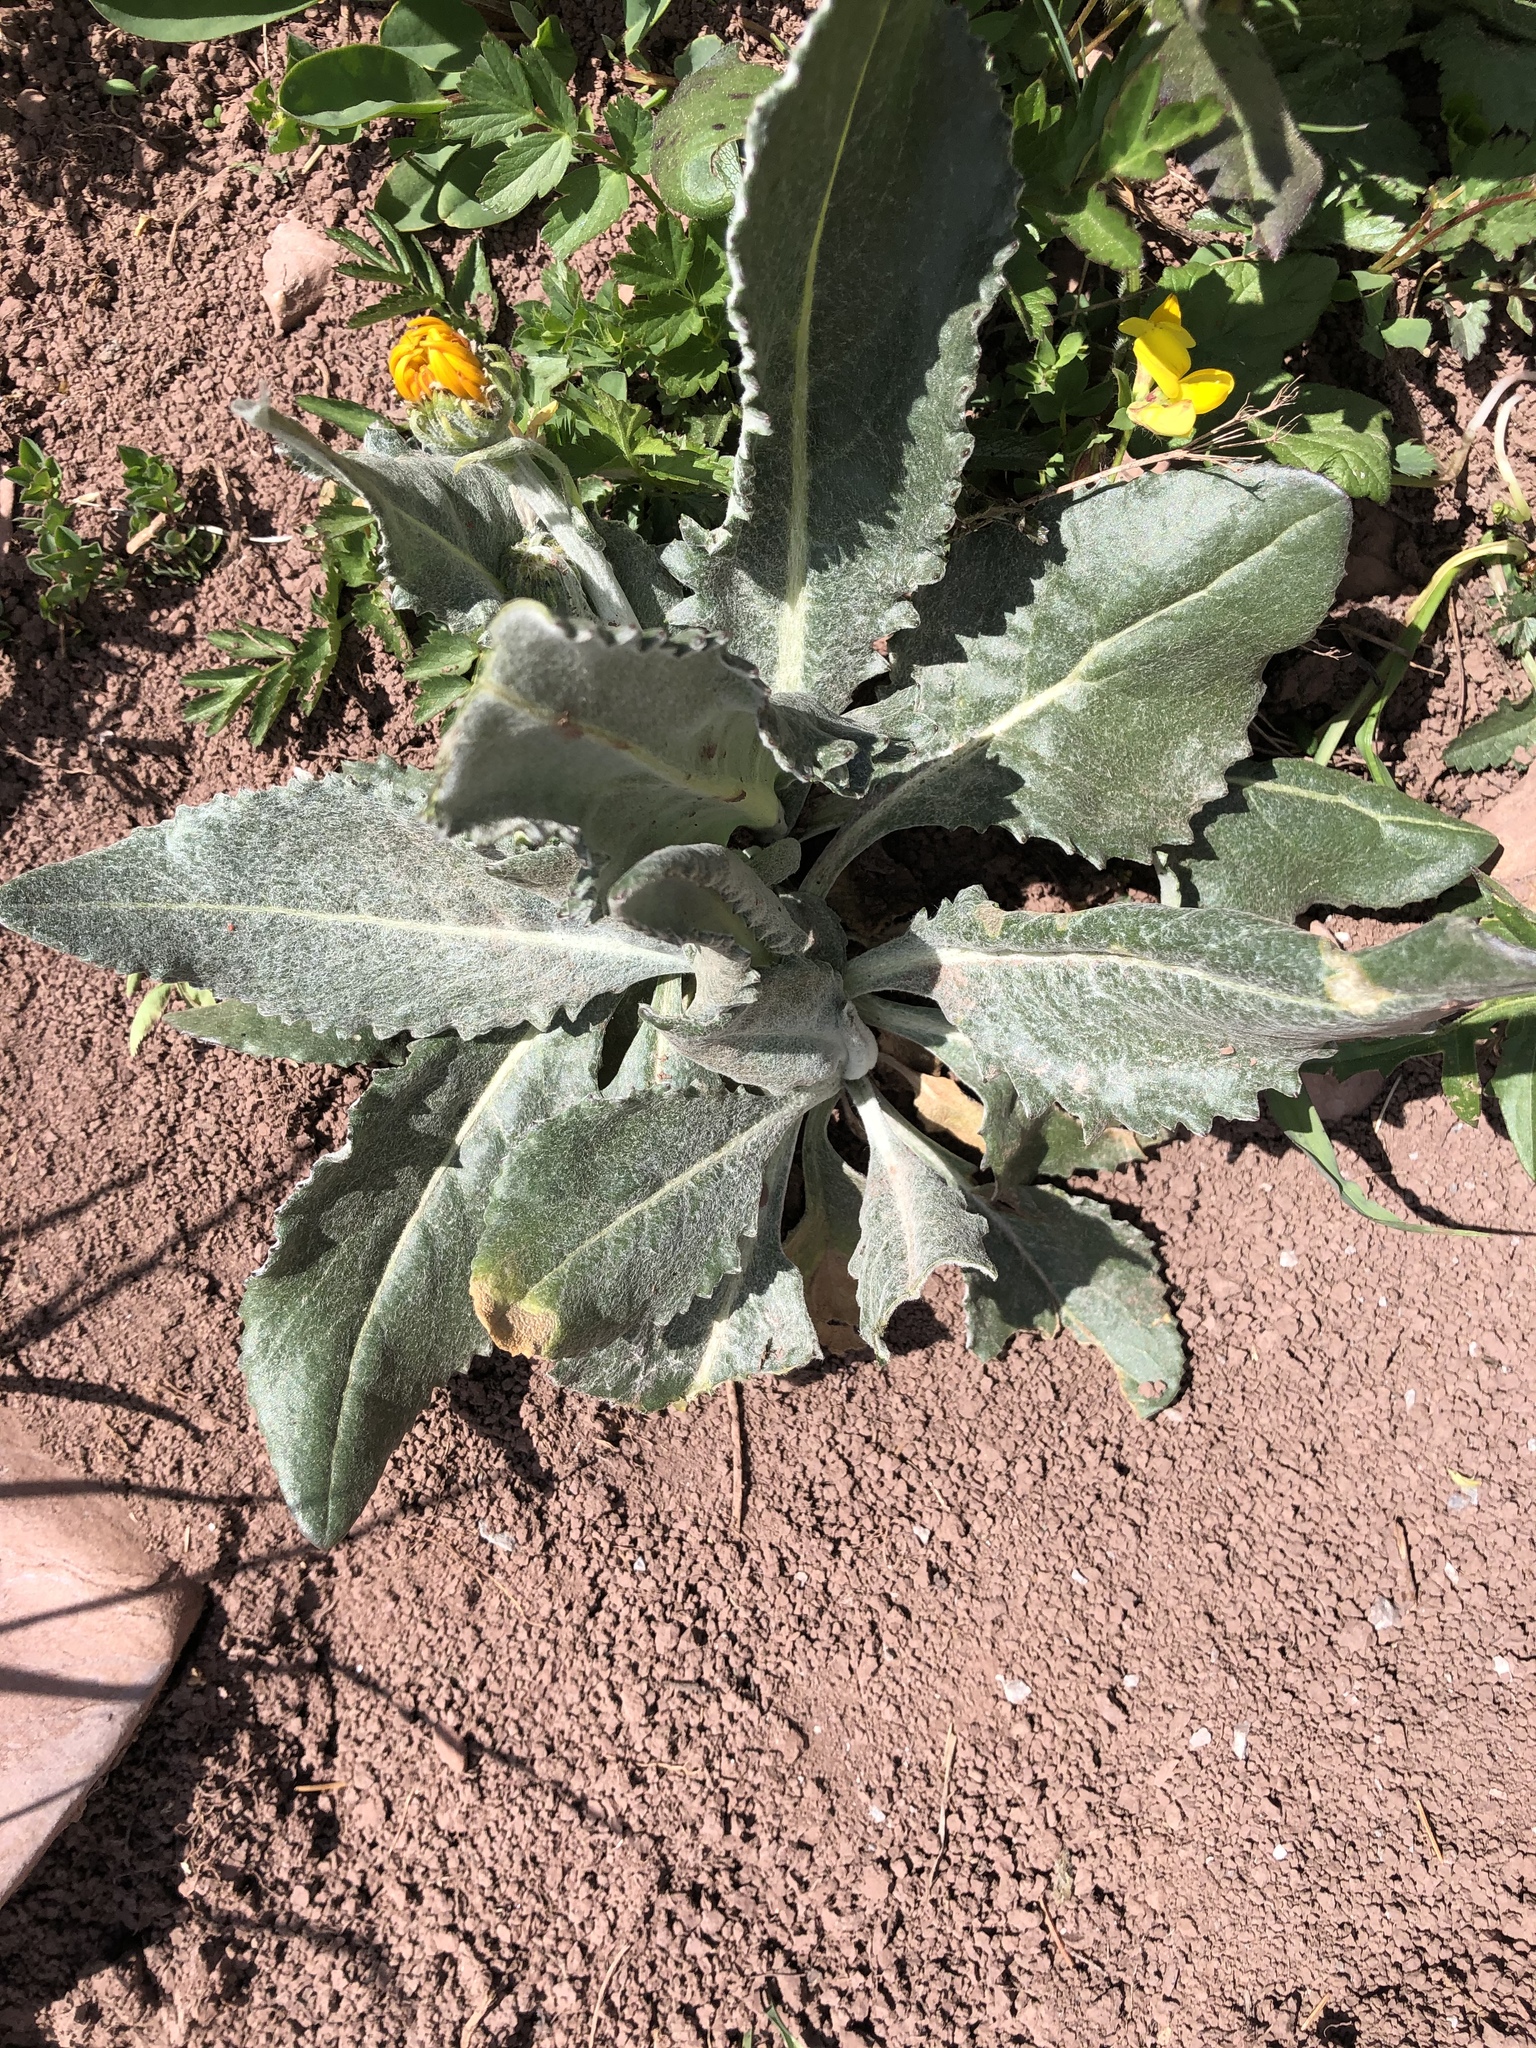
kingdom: Plantae
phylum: Tracheophyta
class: Magnoliopsida
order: Asterales
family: Asteraceae
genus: Senecio
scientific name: Senecio doronicum
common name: Chamois ragwort
